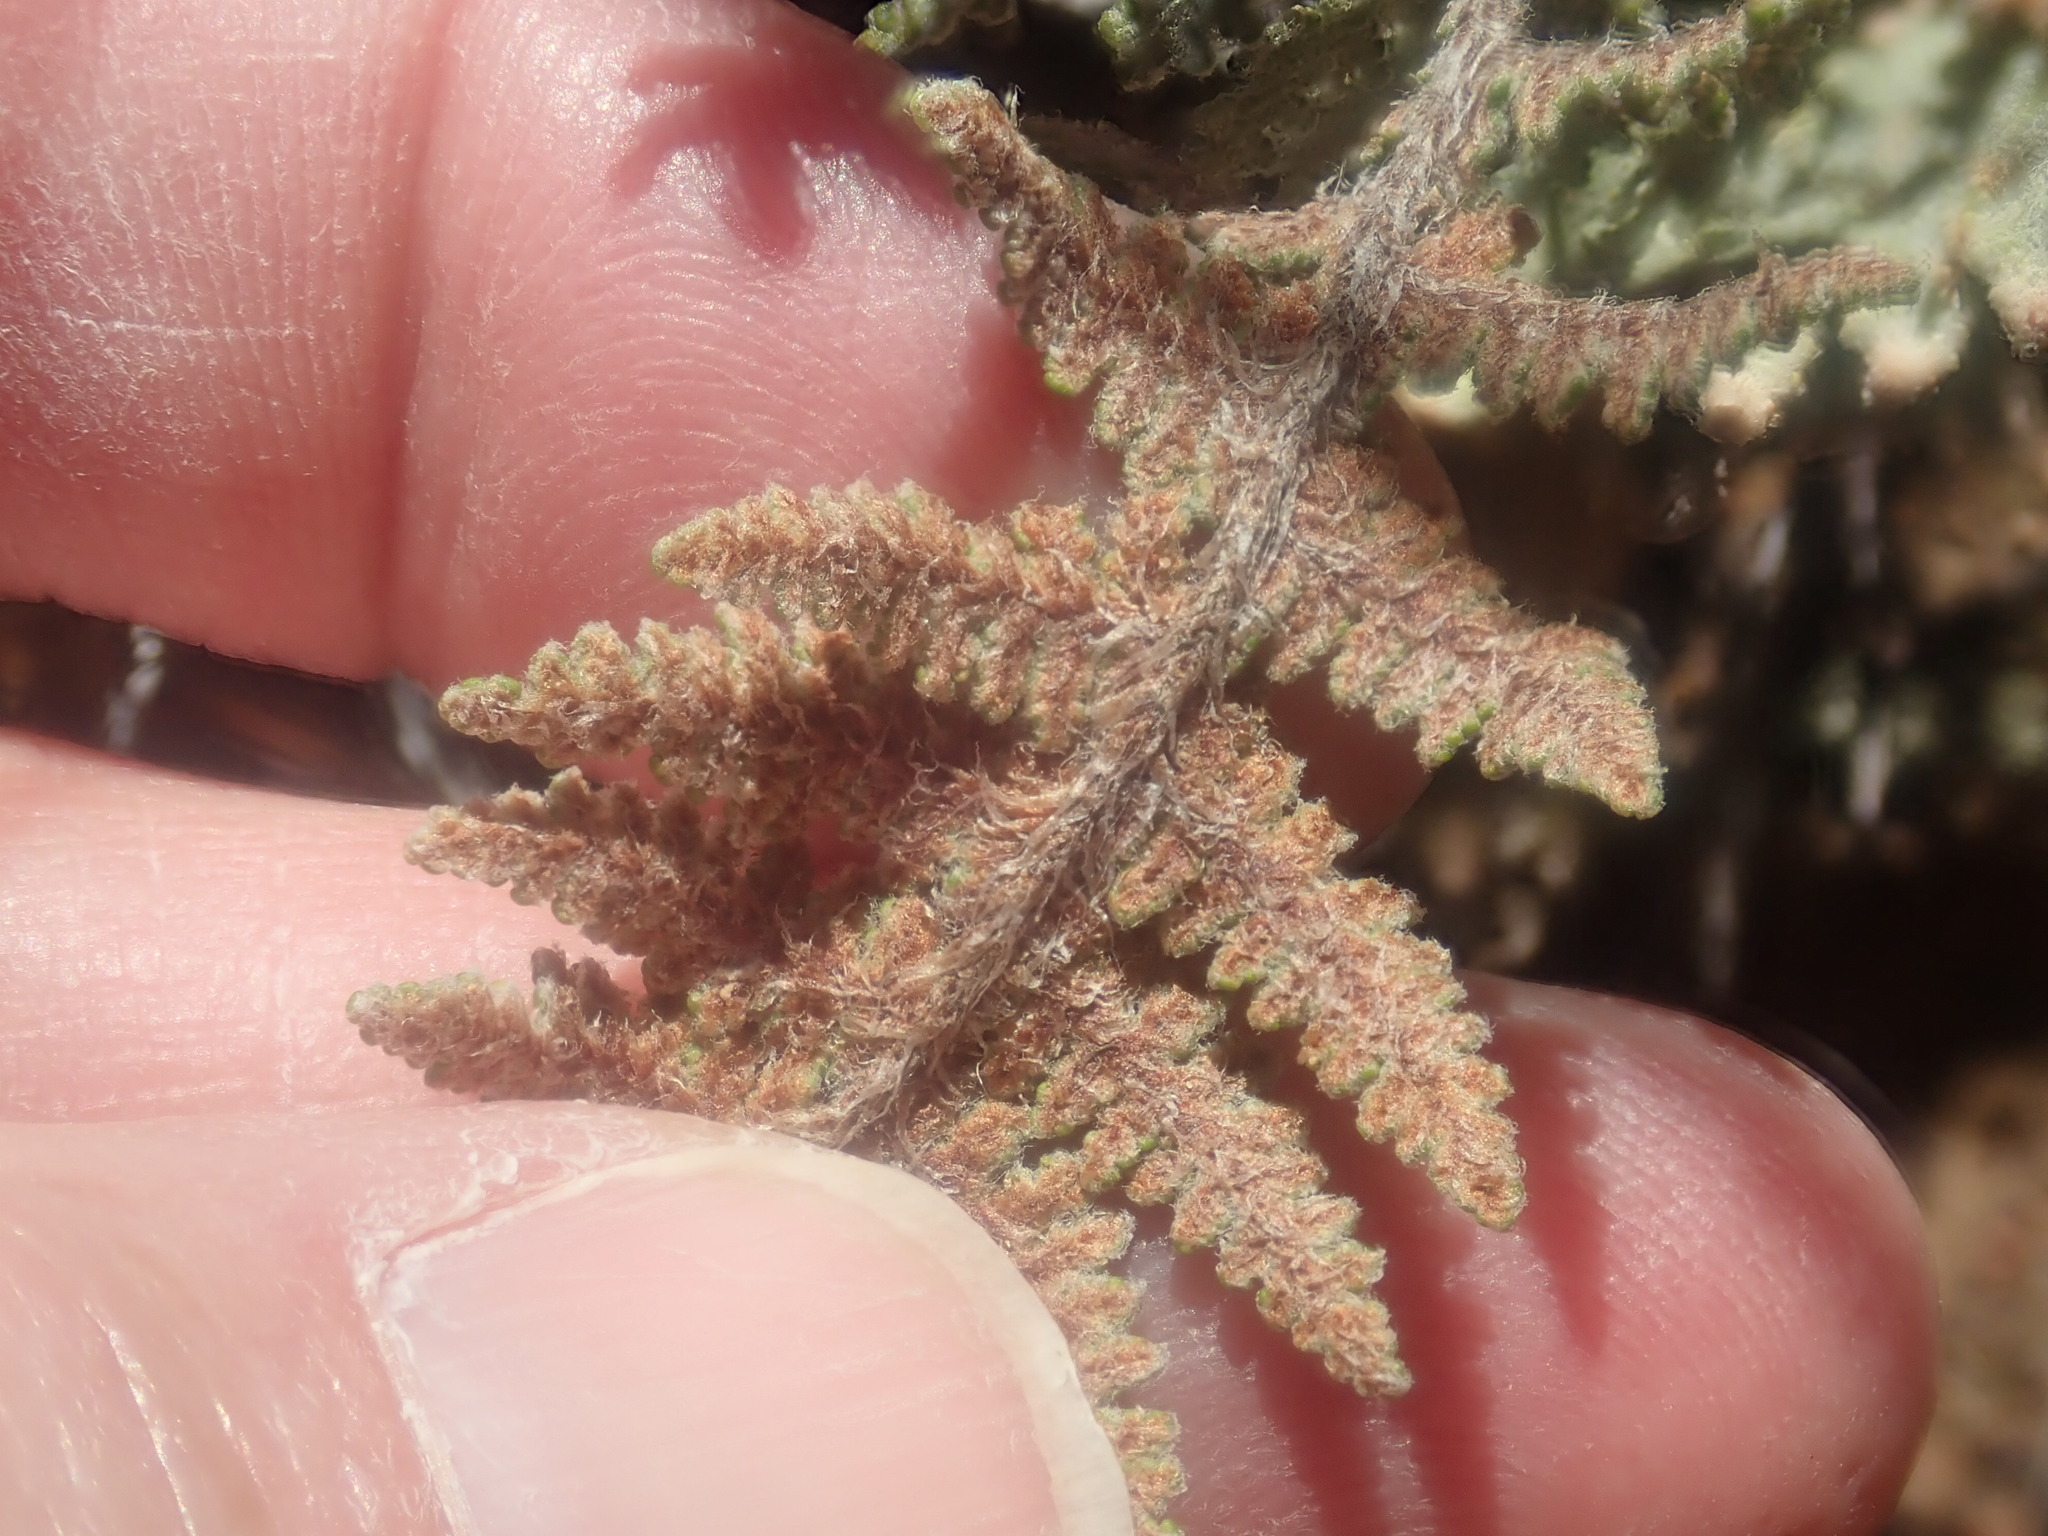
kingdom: Plantae
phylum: Tracheophyta
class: Polypodiopsida
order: Polypodiales
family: Pteridaceae
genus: Myriopteris
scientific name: Myriopteris lindheimeri
